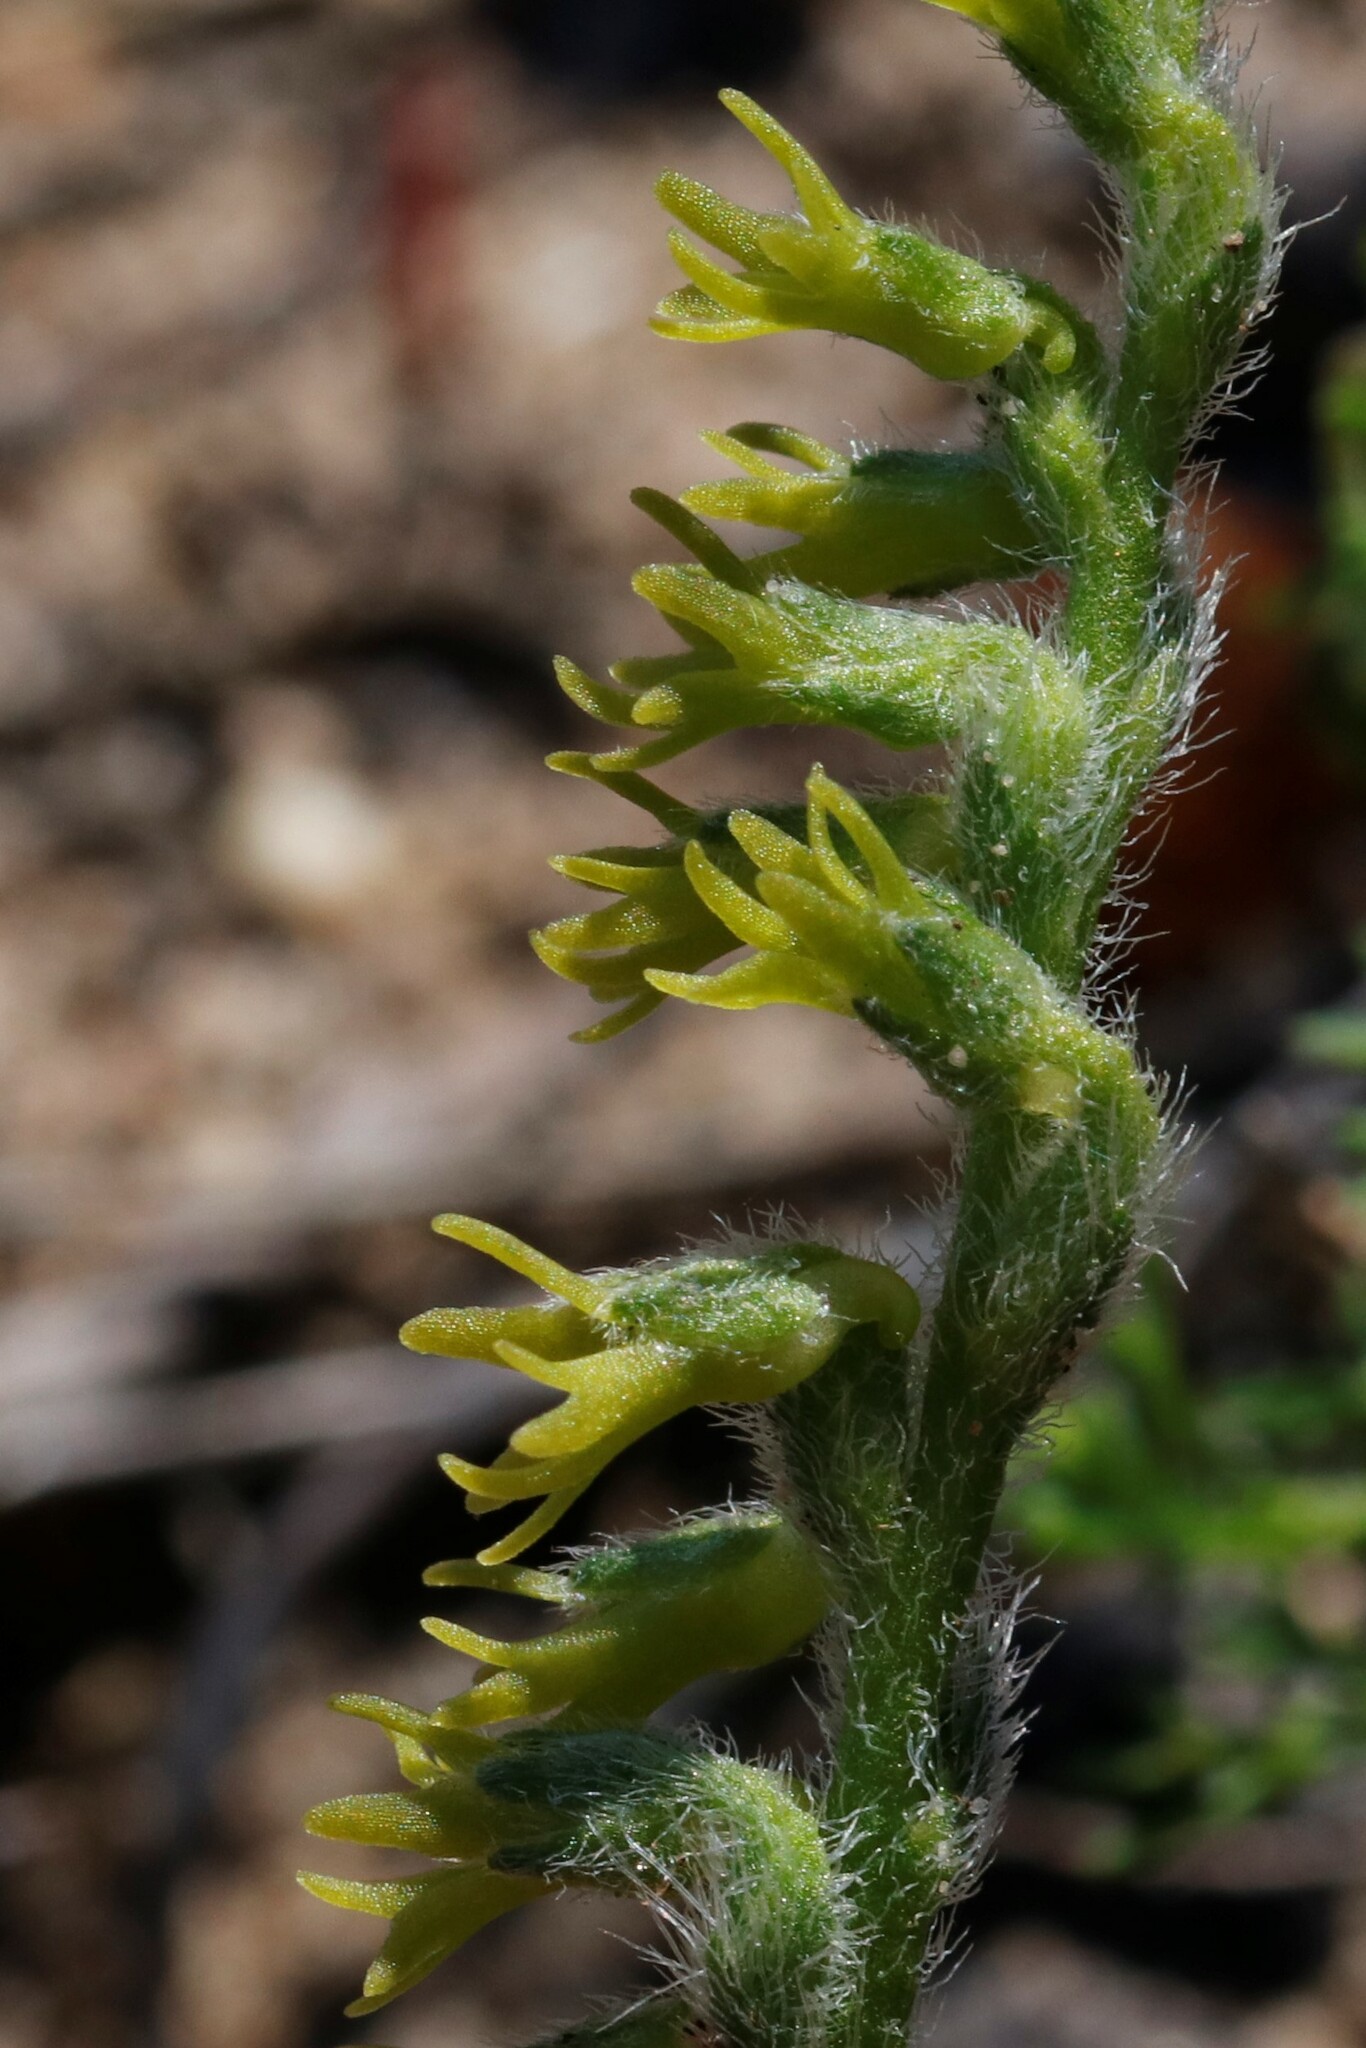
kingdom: Plantae
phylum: Tracheophyta
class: Liliopsida
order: Asparagales
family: Orchidaceae
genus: Holothrix
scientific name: Holothrix cernua
